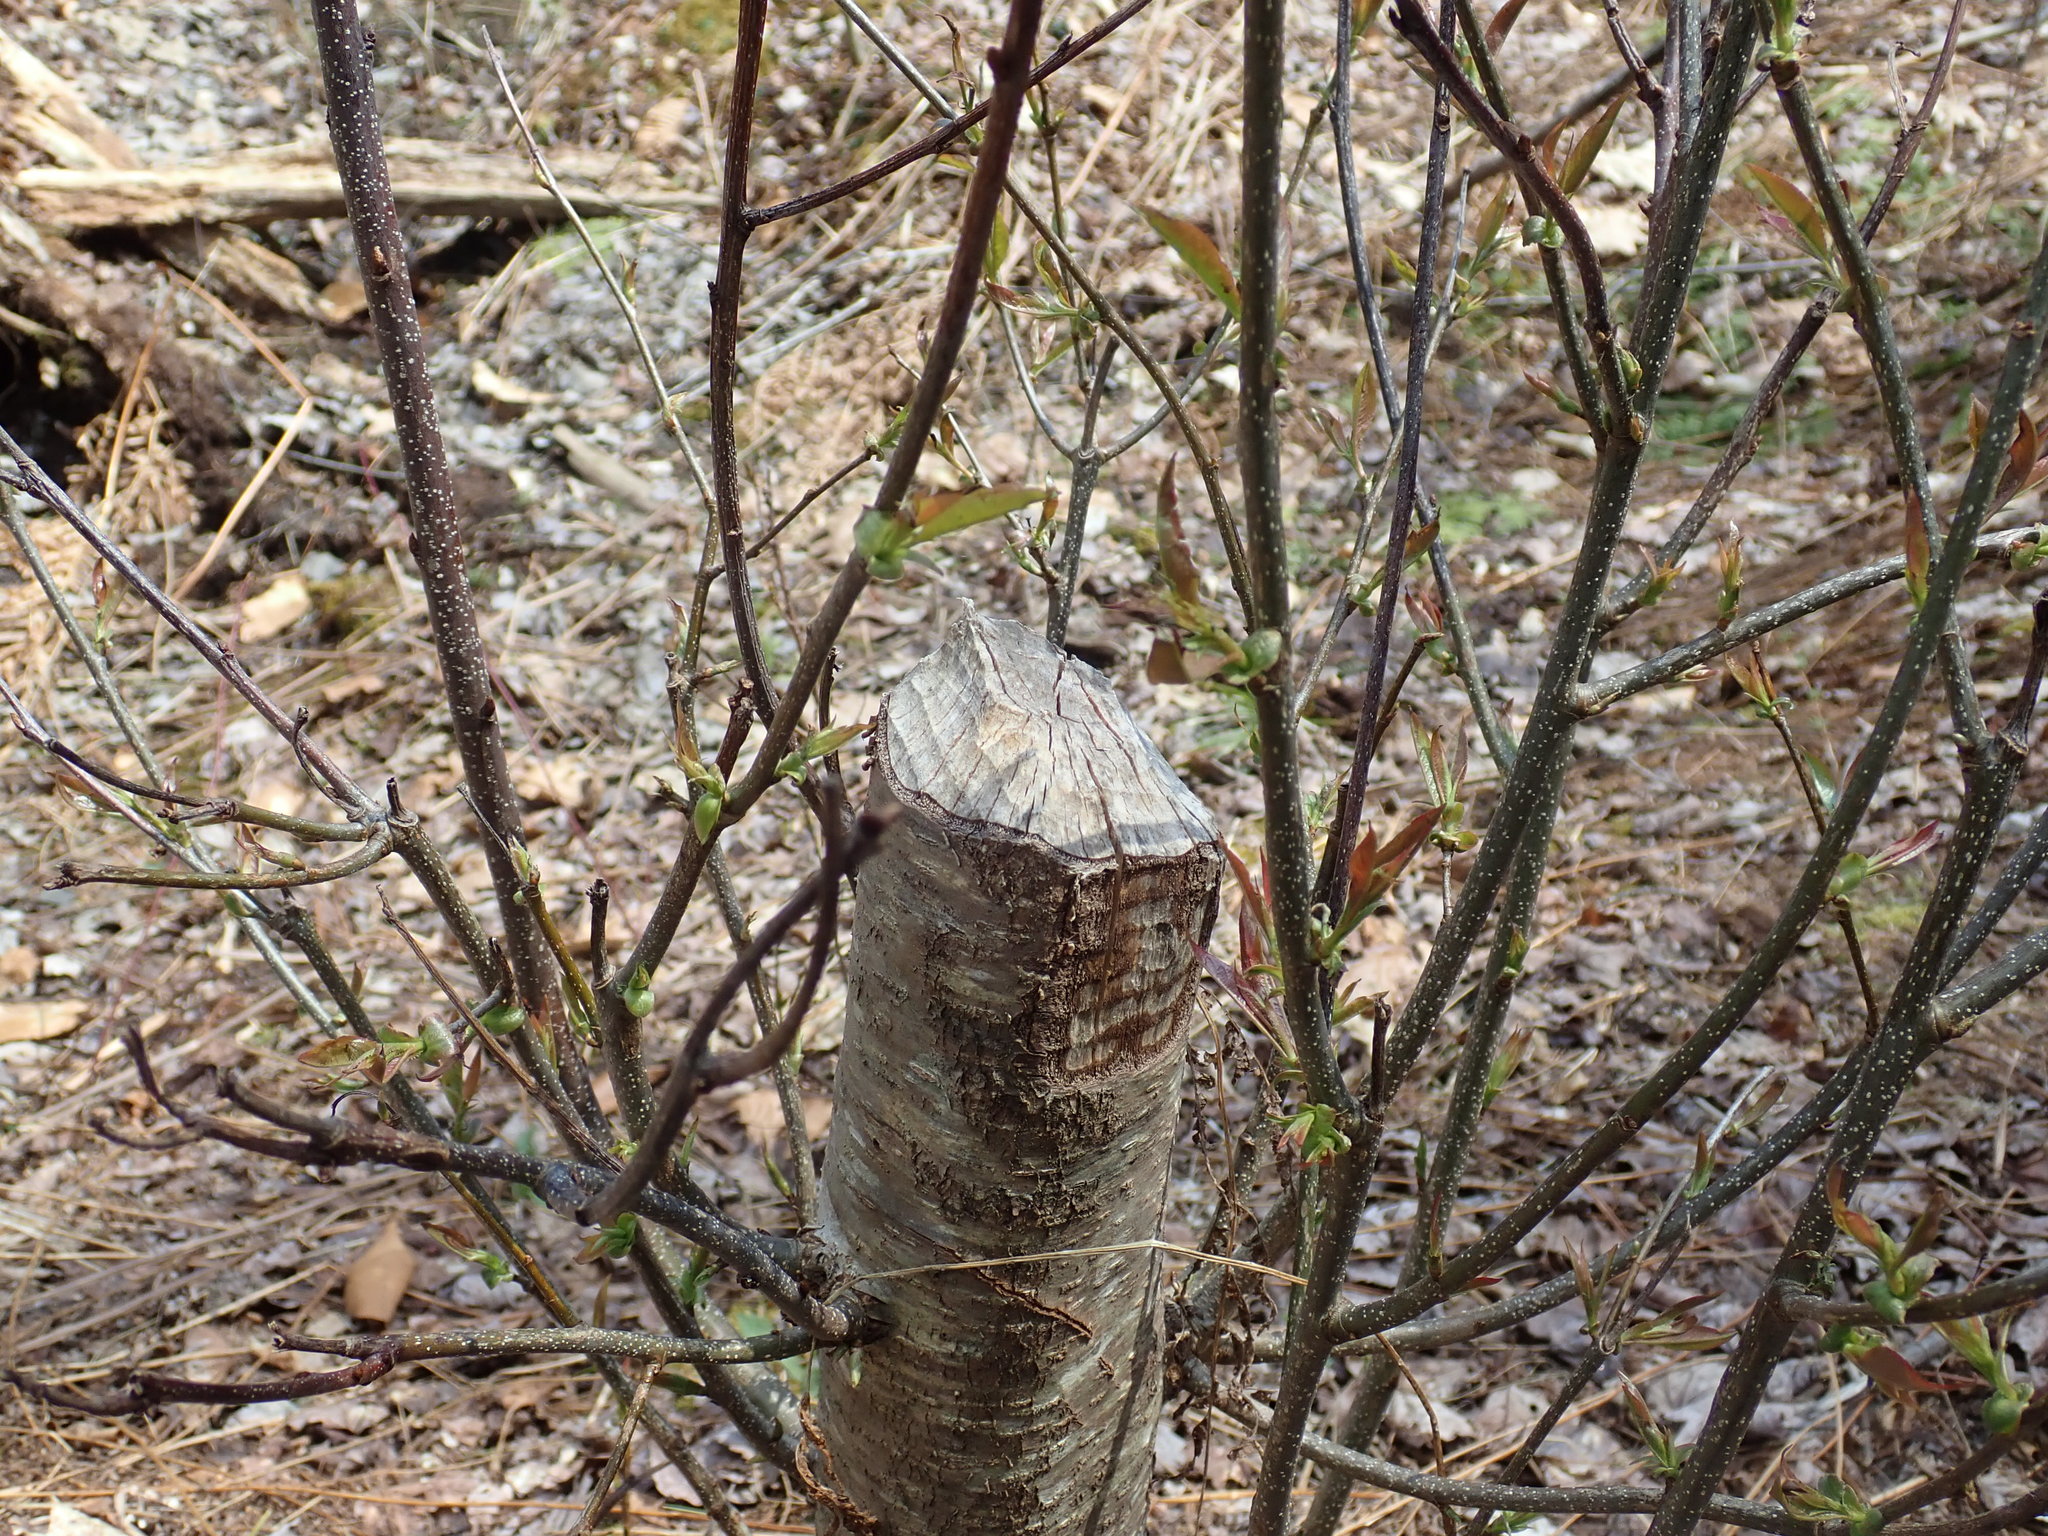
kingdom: Animalia
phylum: Chordata
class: Mammalia
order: Rodentia
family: Castoridae
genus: Castor
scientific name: Castor canadensis
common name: American beaver
